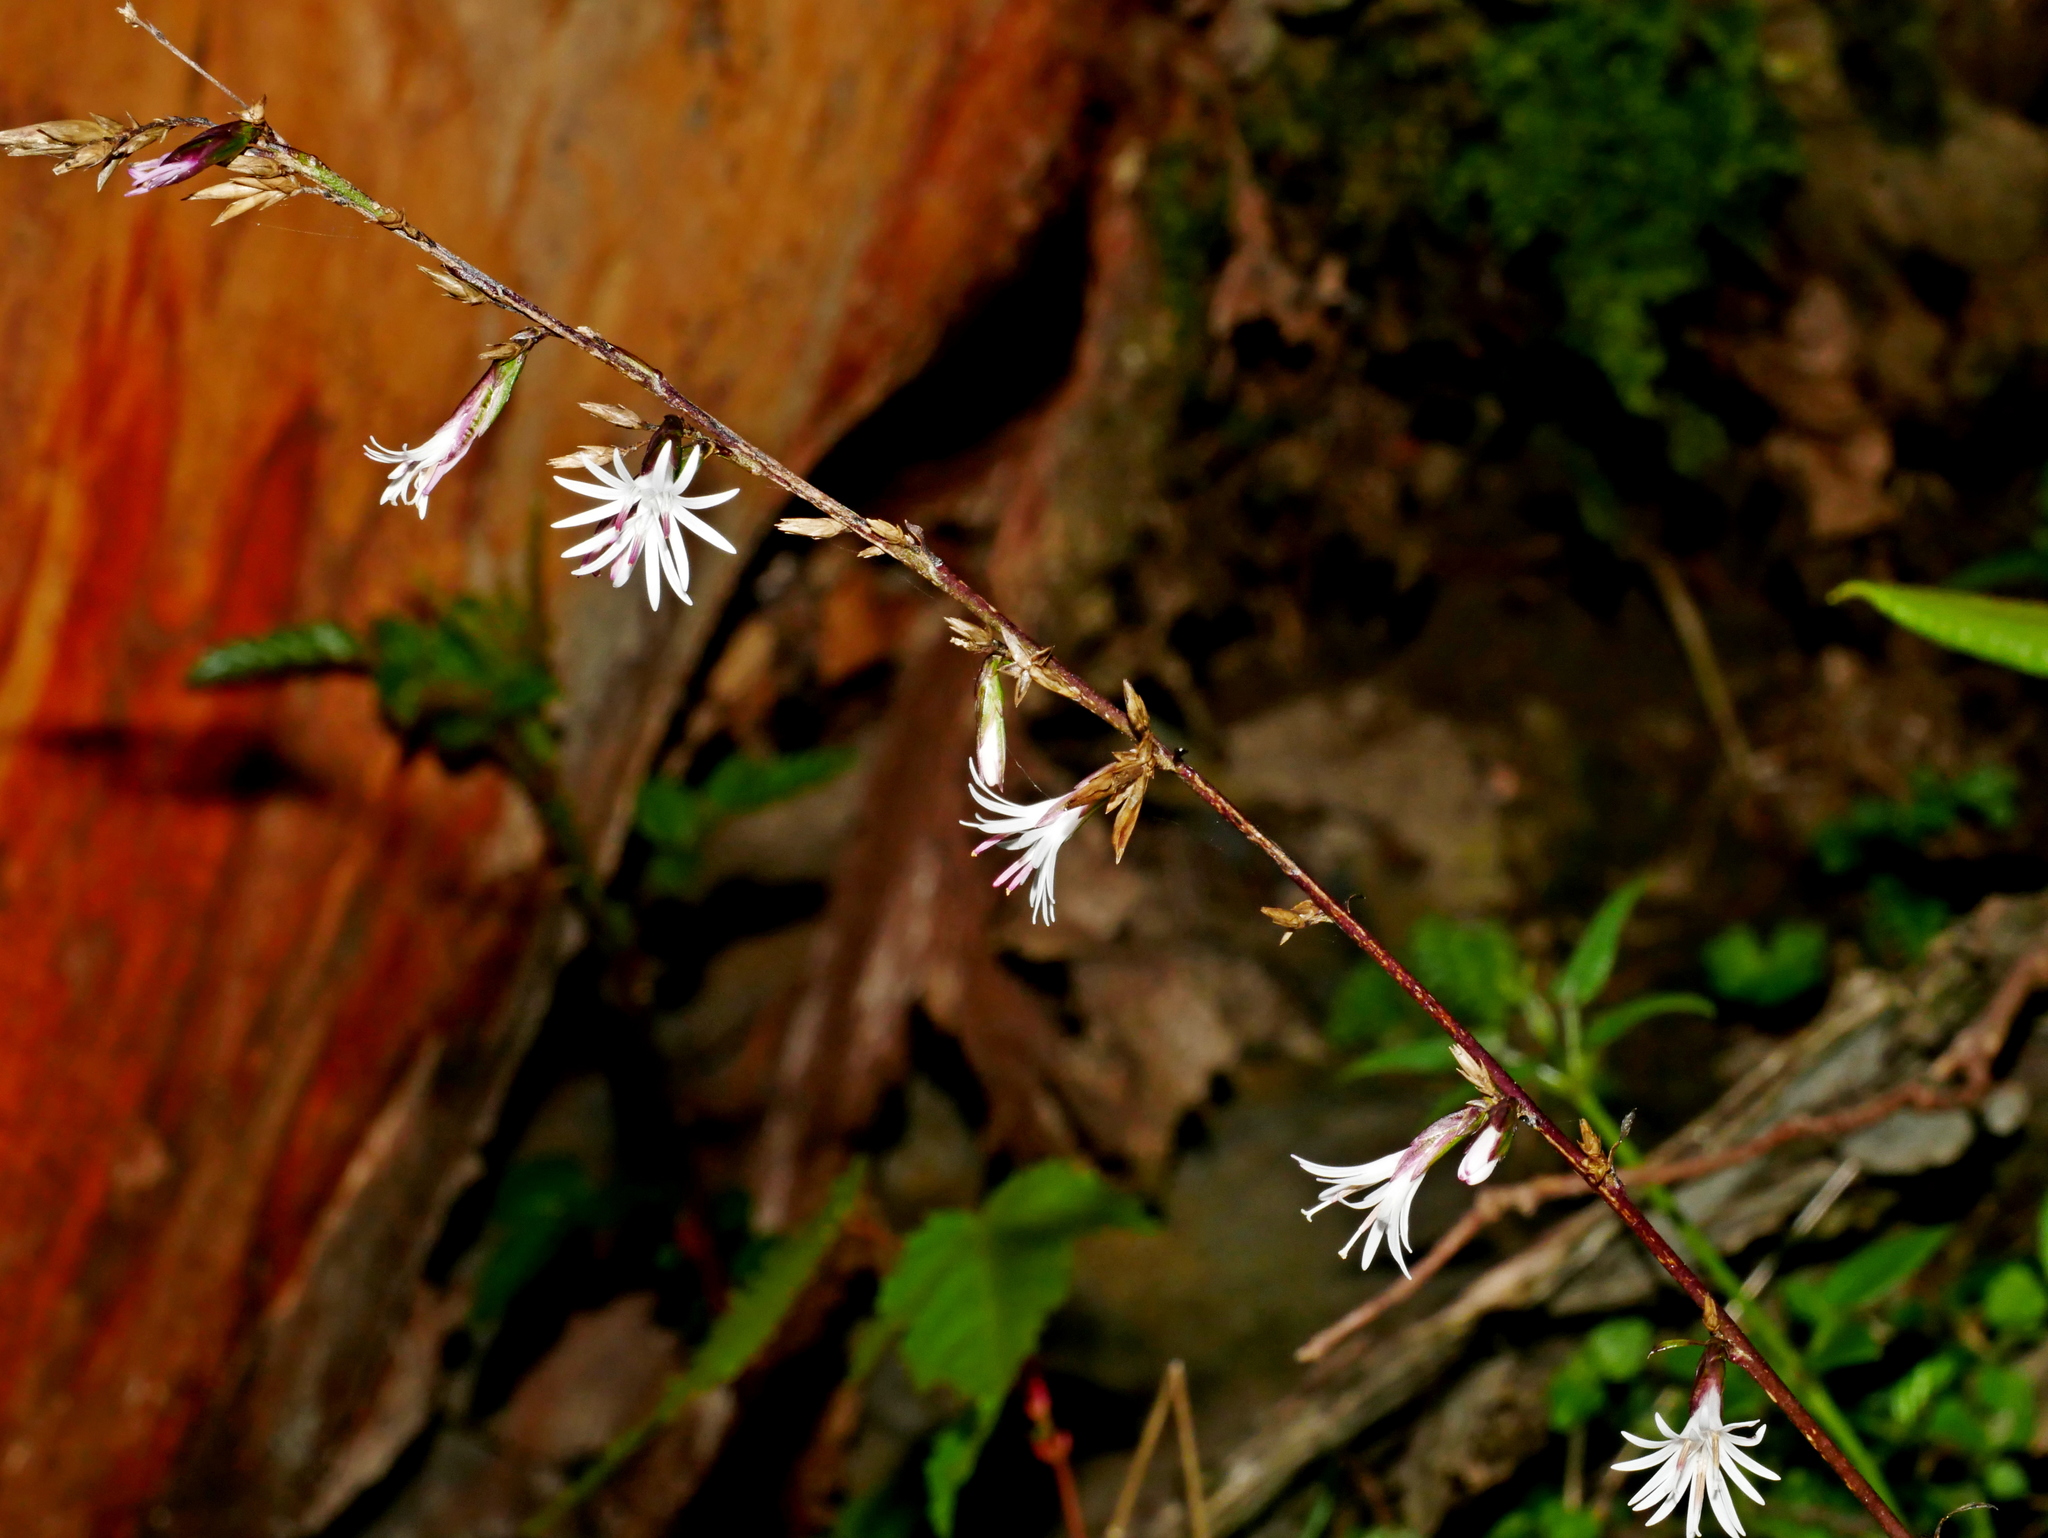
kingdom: Plantae
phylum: Tracheophyta
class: Magnoliopsida
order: Asterales
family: Asteraceae
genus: Ainsliaea
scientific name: Ainsliaea latifolia
